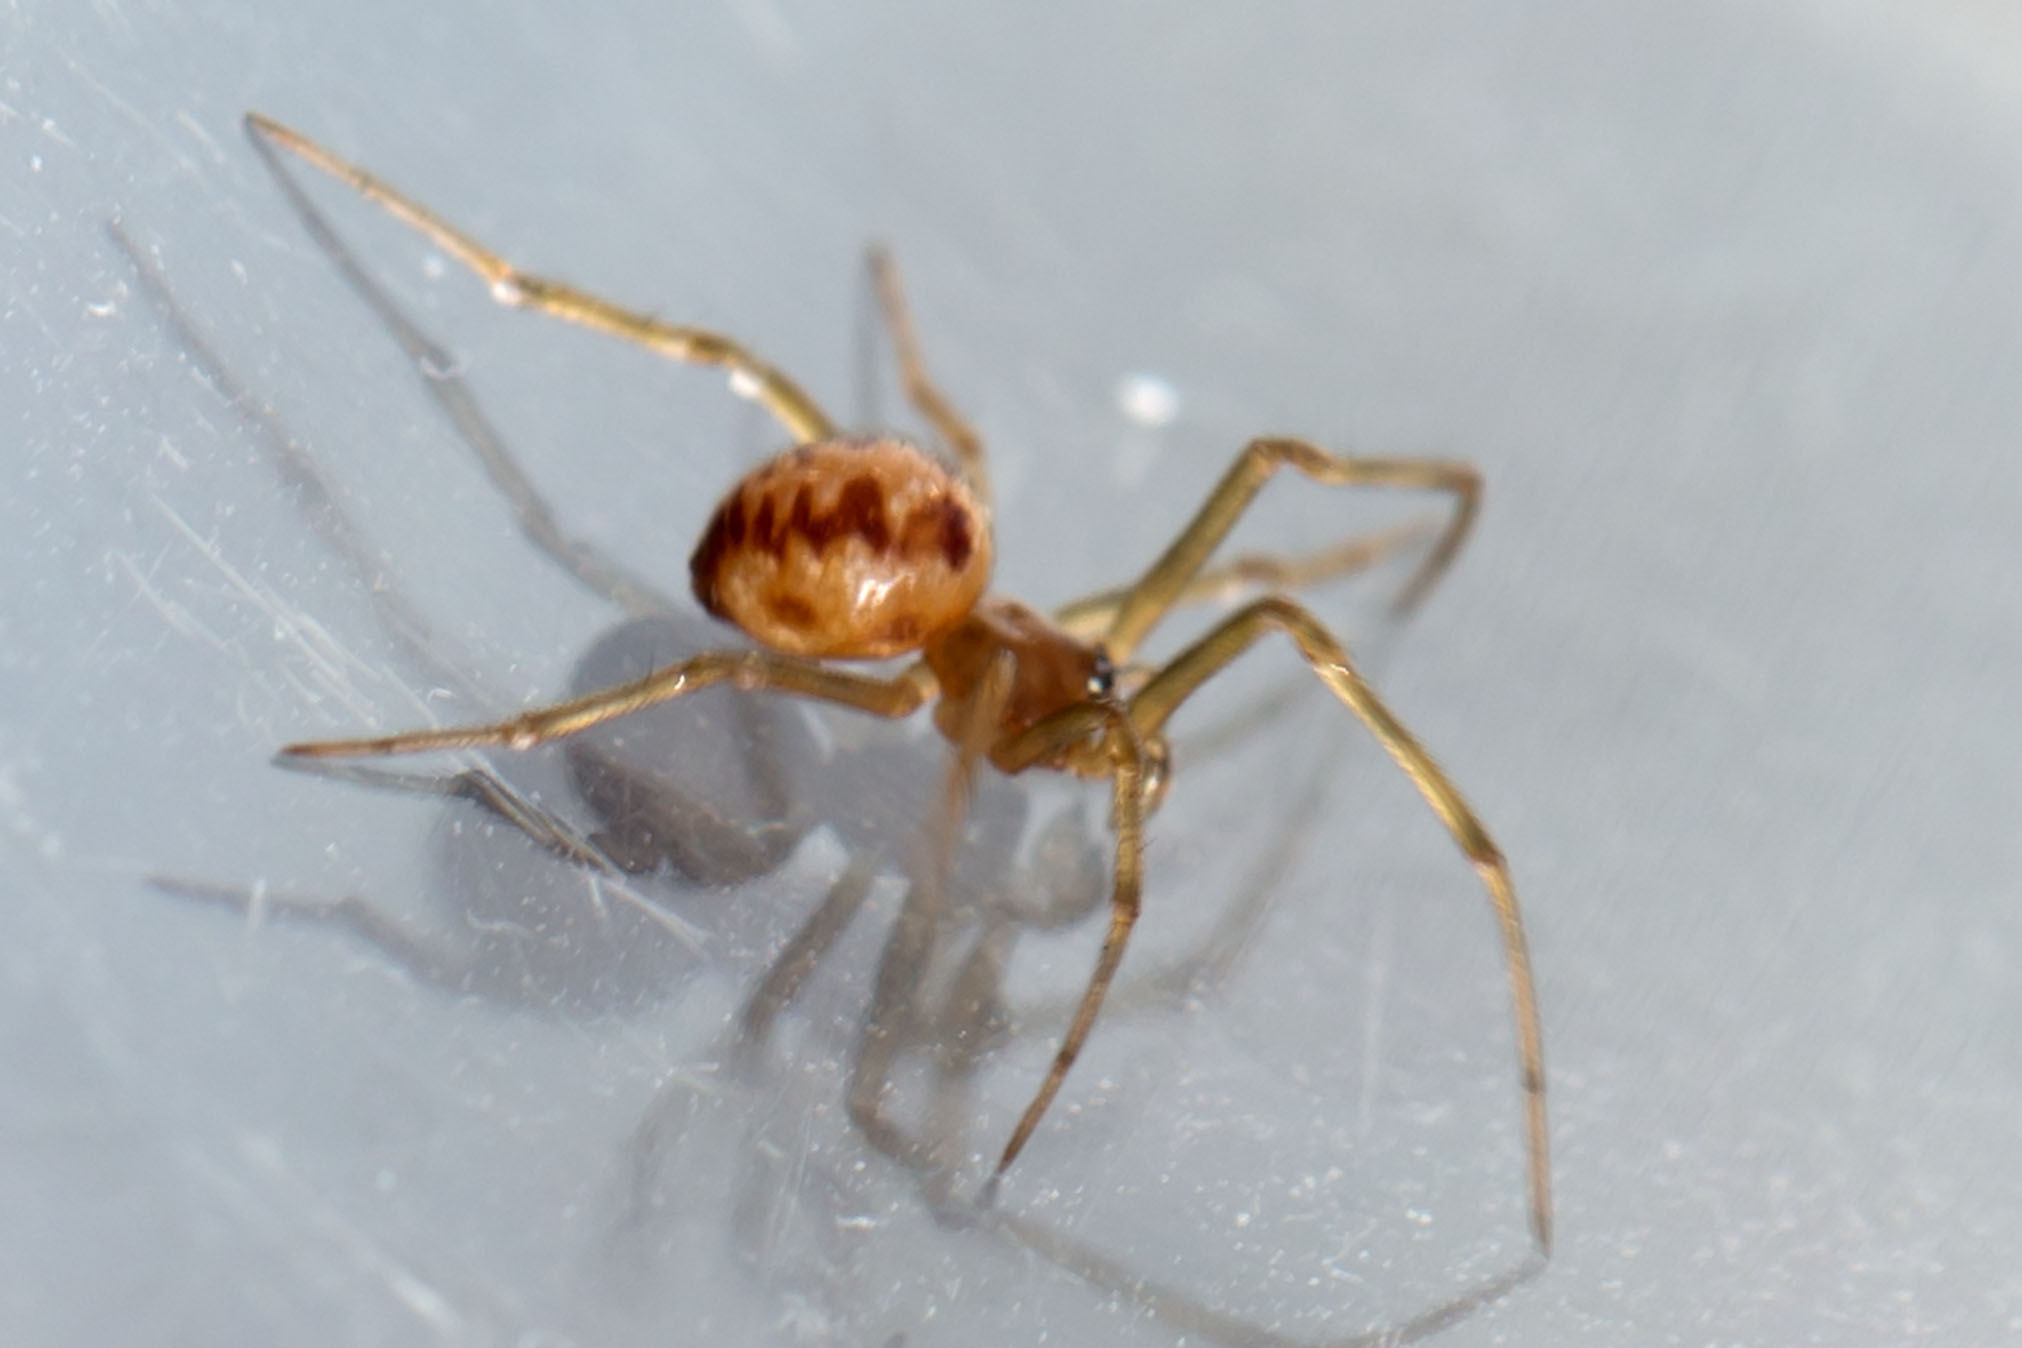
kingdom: Animalia
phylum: Arthropoda
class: Arachnida
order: Araneae
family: Theridiidae
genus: Steatoda
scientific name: Steatoda triangulosa
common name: Triangulate bud spider
